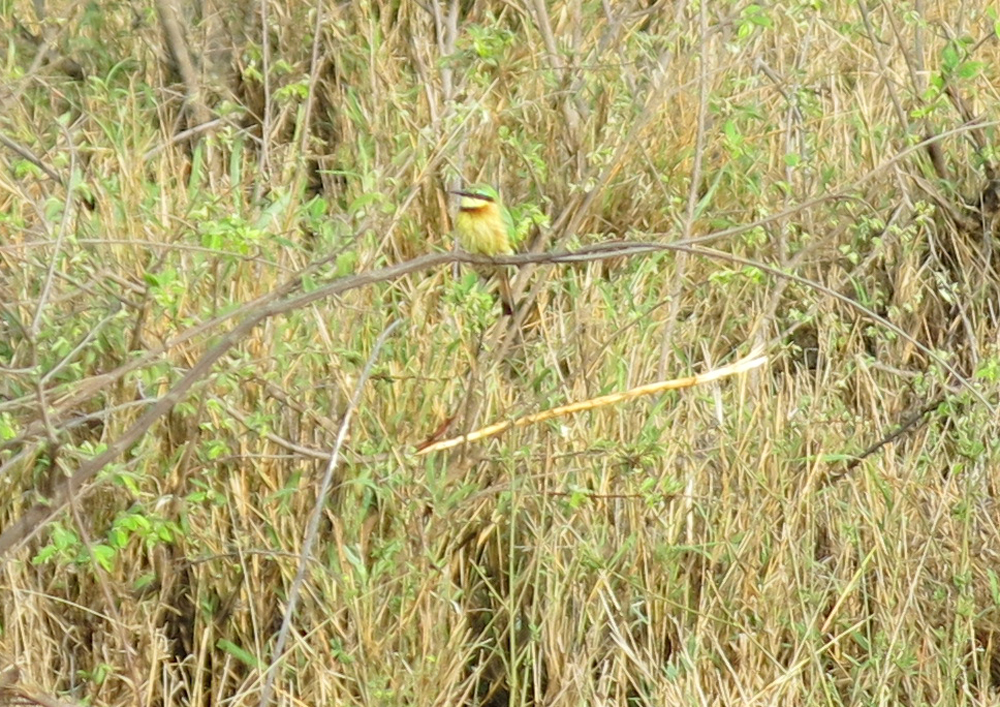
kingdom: Animalia
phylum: Chordata
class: Aves
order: Coraciiformes
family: Meropidae
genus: Merops
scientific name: Merops pusillus
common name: Little bee-eater
